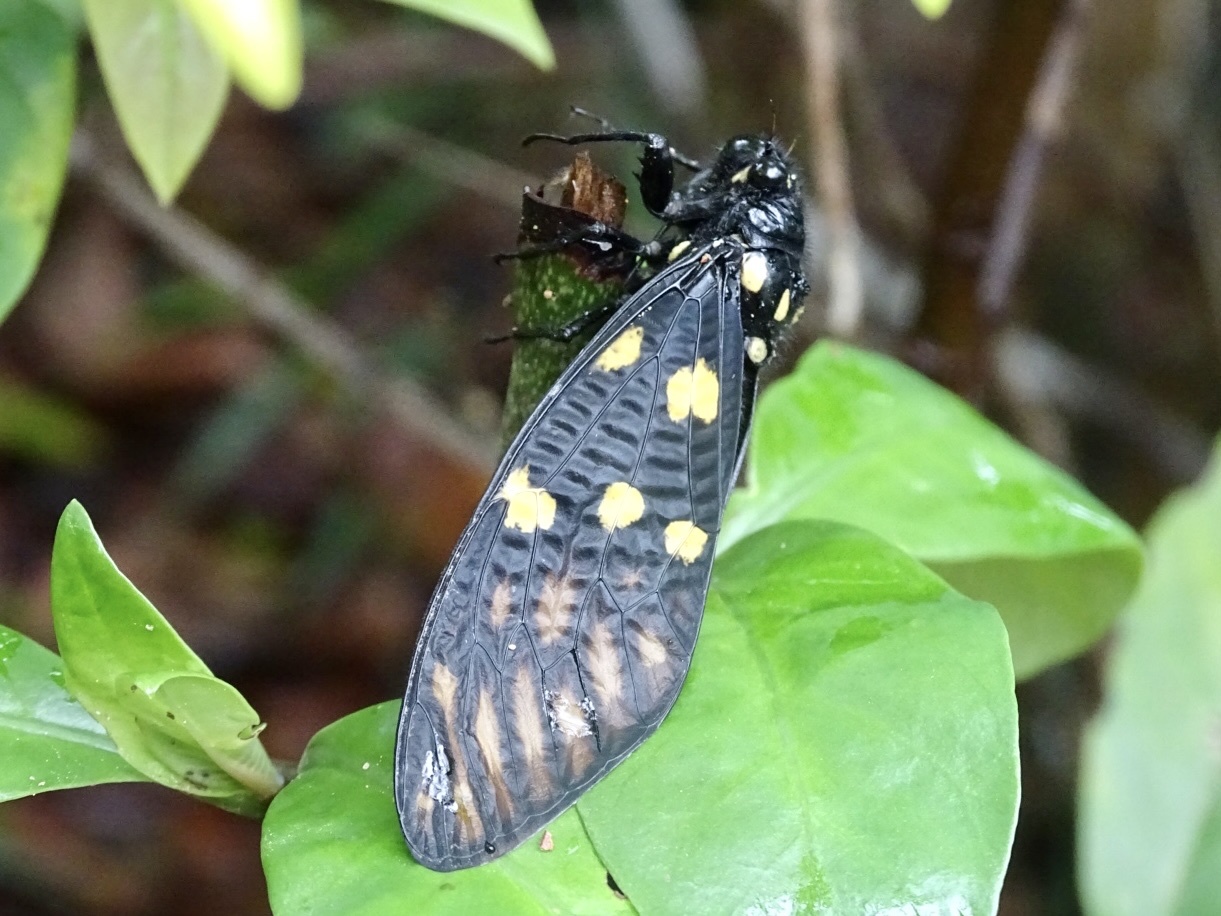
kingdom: Animalia
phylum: Arthropoda
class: Insecta
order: Hemiptera
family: Cicadidae
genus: Gaeana
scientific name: Gaeana maculata
